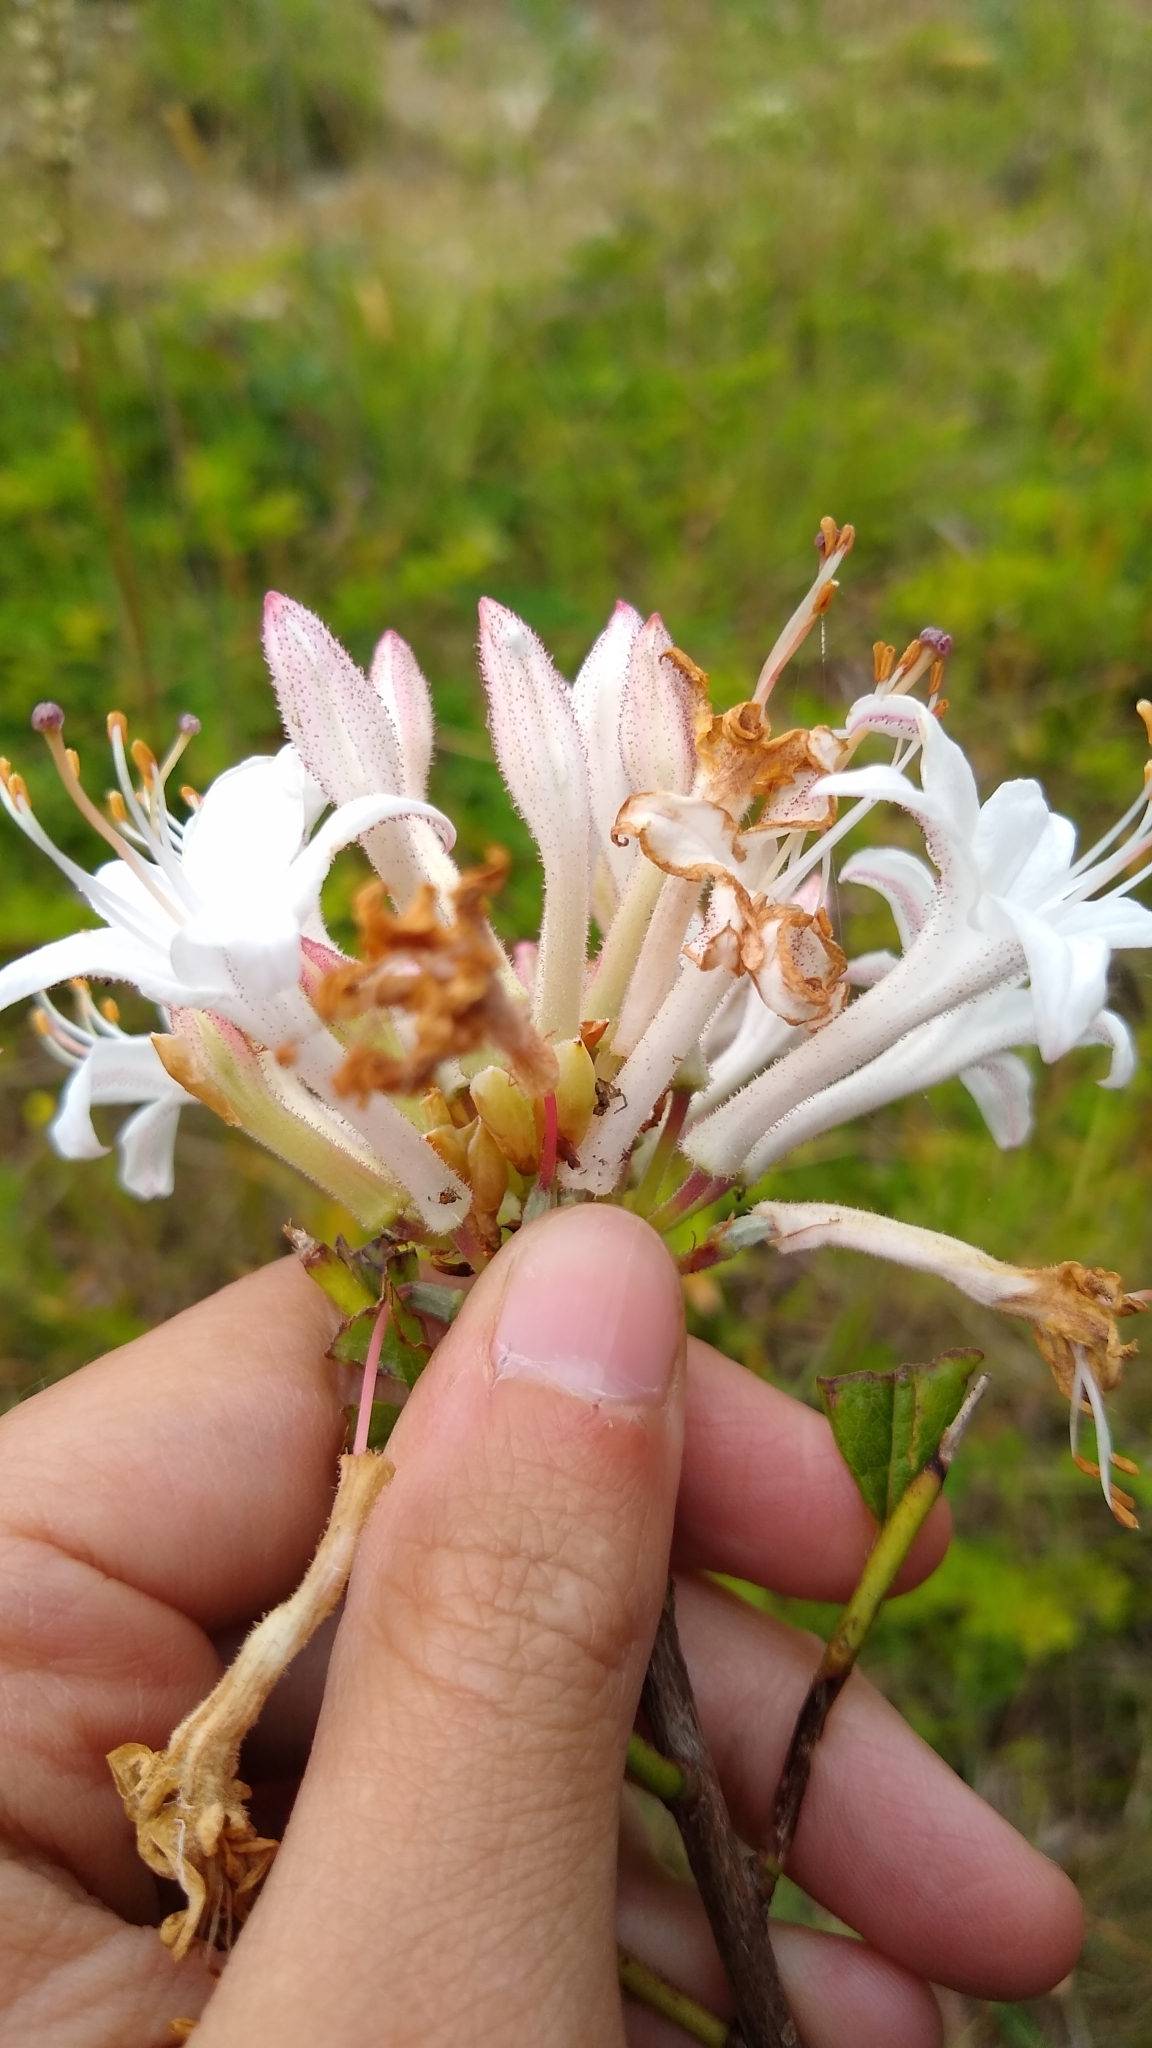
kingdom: Plantae
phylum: Tracheophyta
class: Magnoliopsida
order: Ericales
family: Ericaceae
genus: Rhododendron
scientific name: Rhododendron viscosum
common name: Clammy azalea
